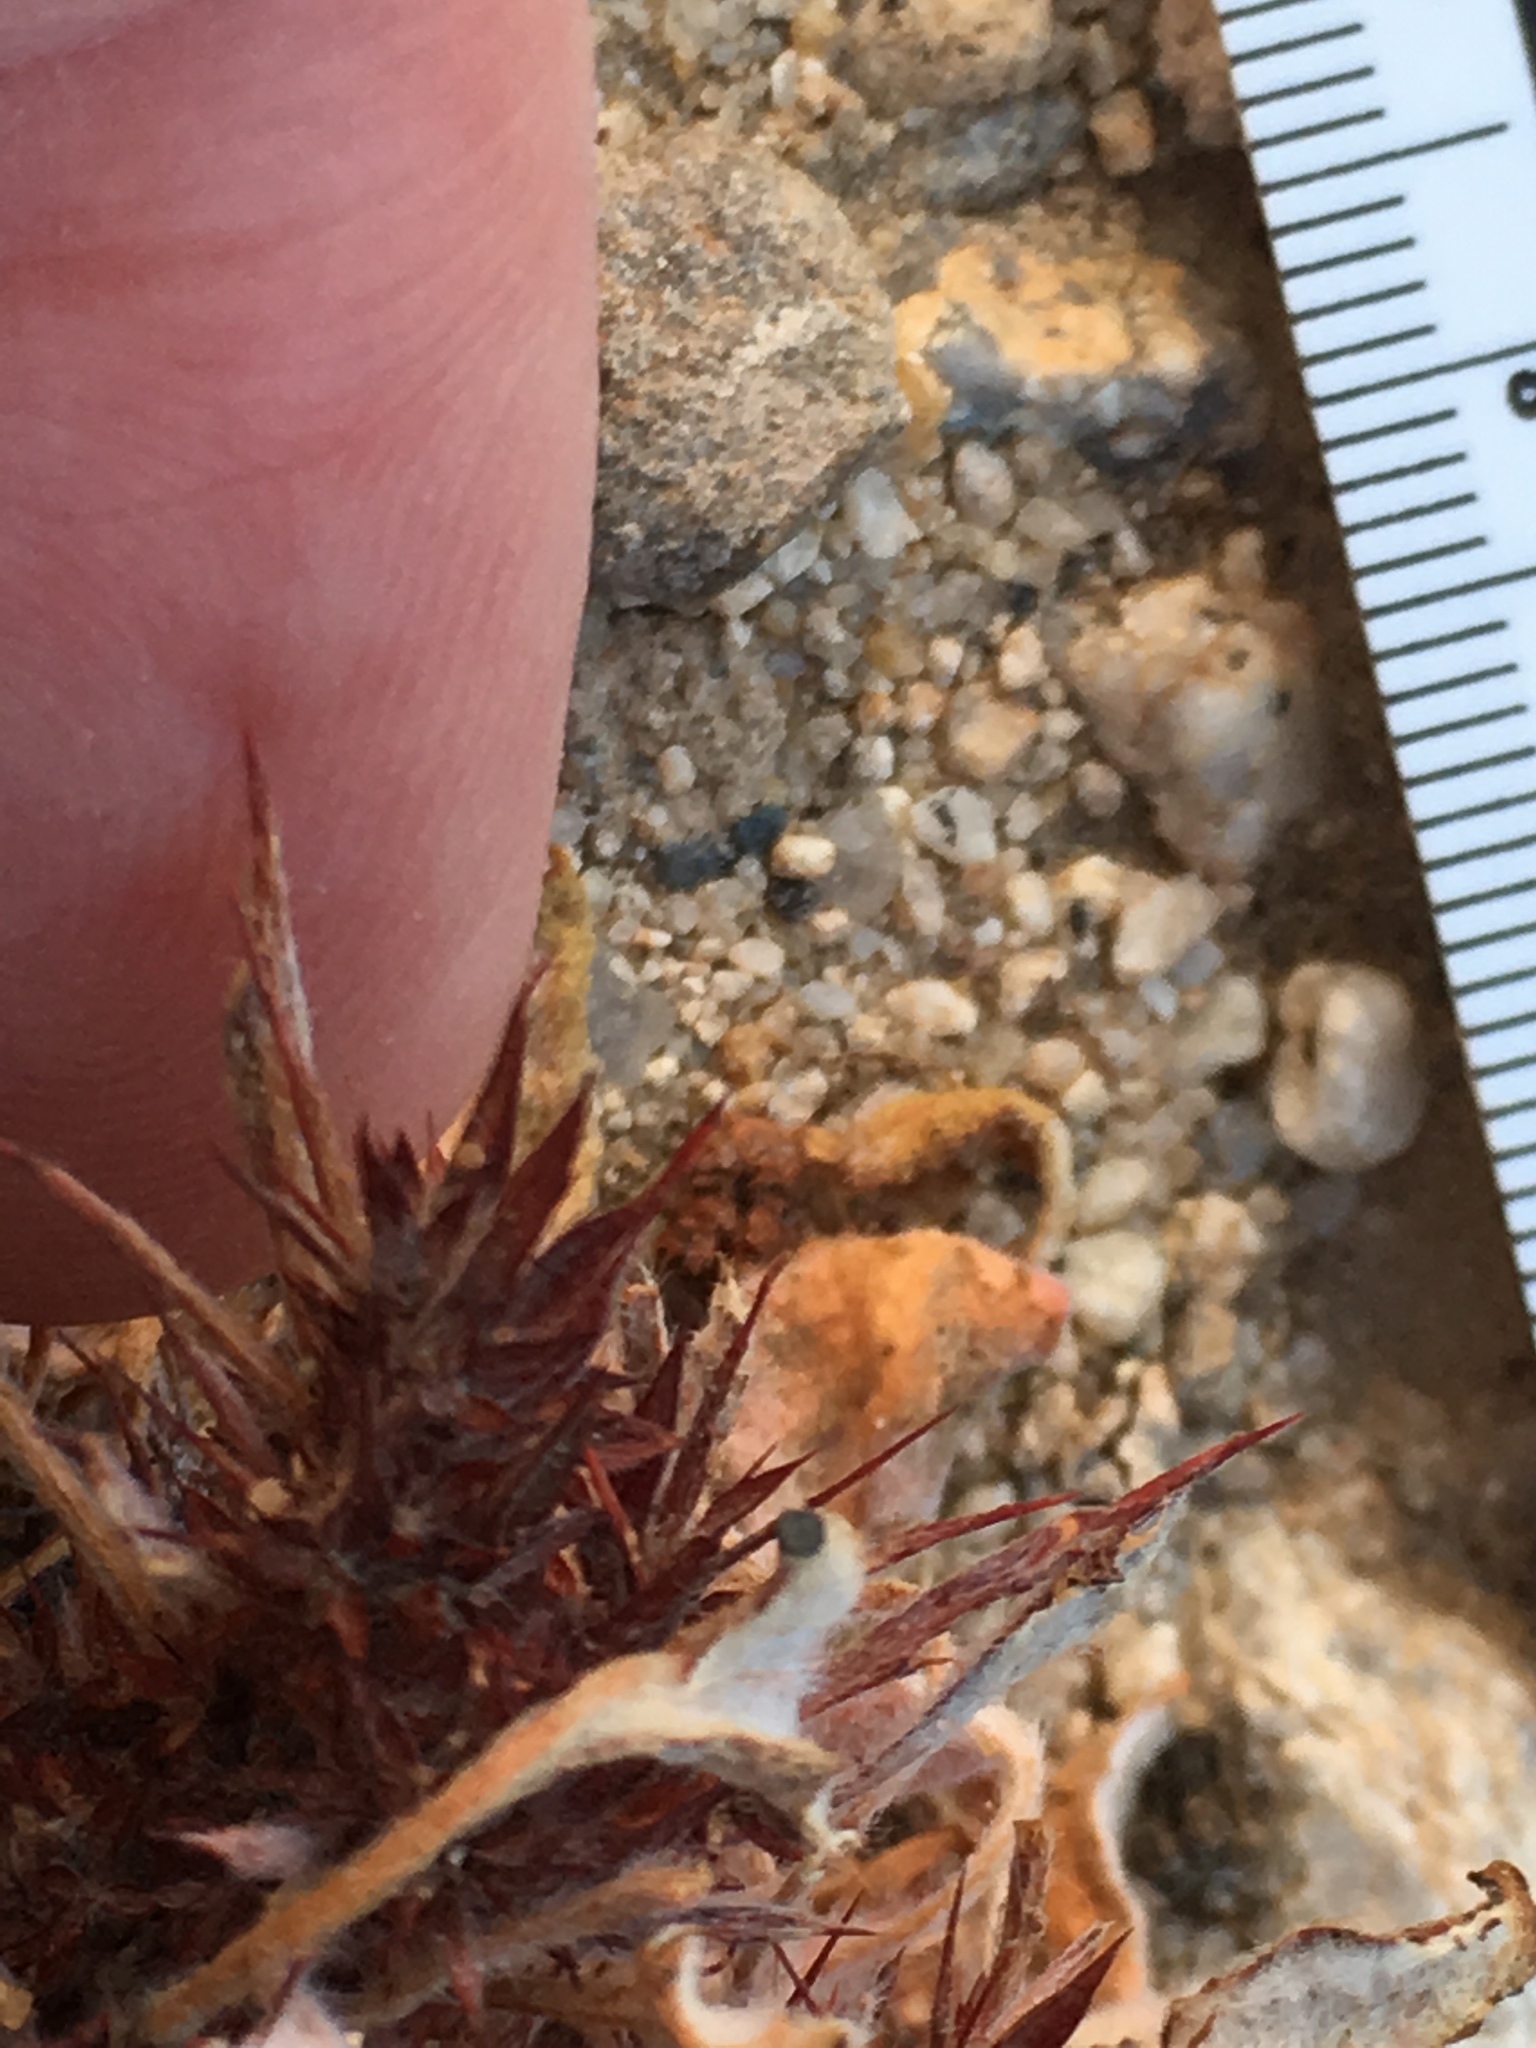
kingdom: Plantae
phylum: Tracheophyta
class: Magnoliopsida
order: Caryophyllales
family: Polygonaceae
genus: Chorizanthe
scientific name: Chorizanthe rigida
